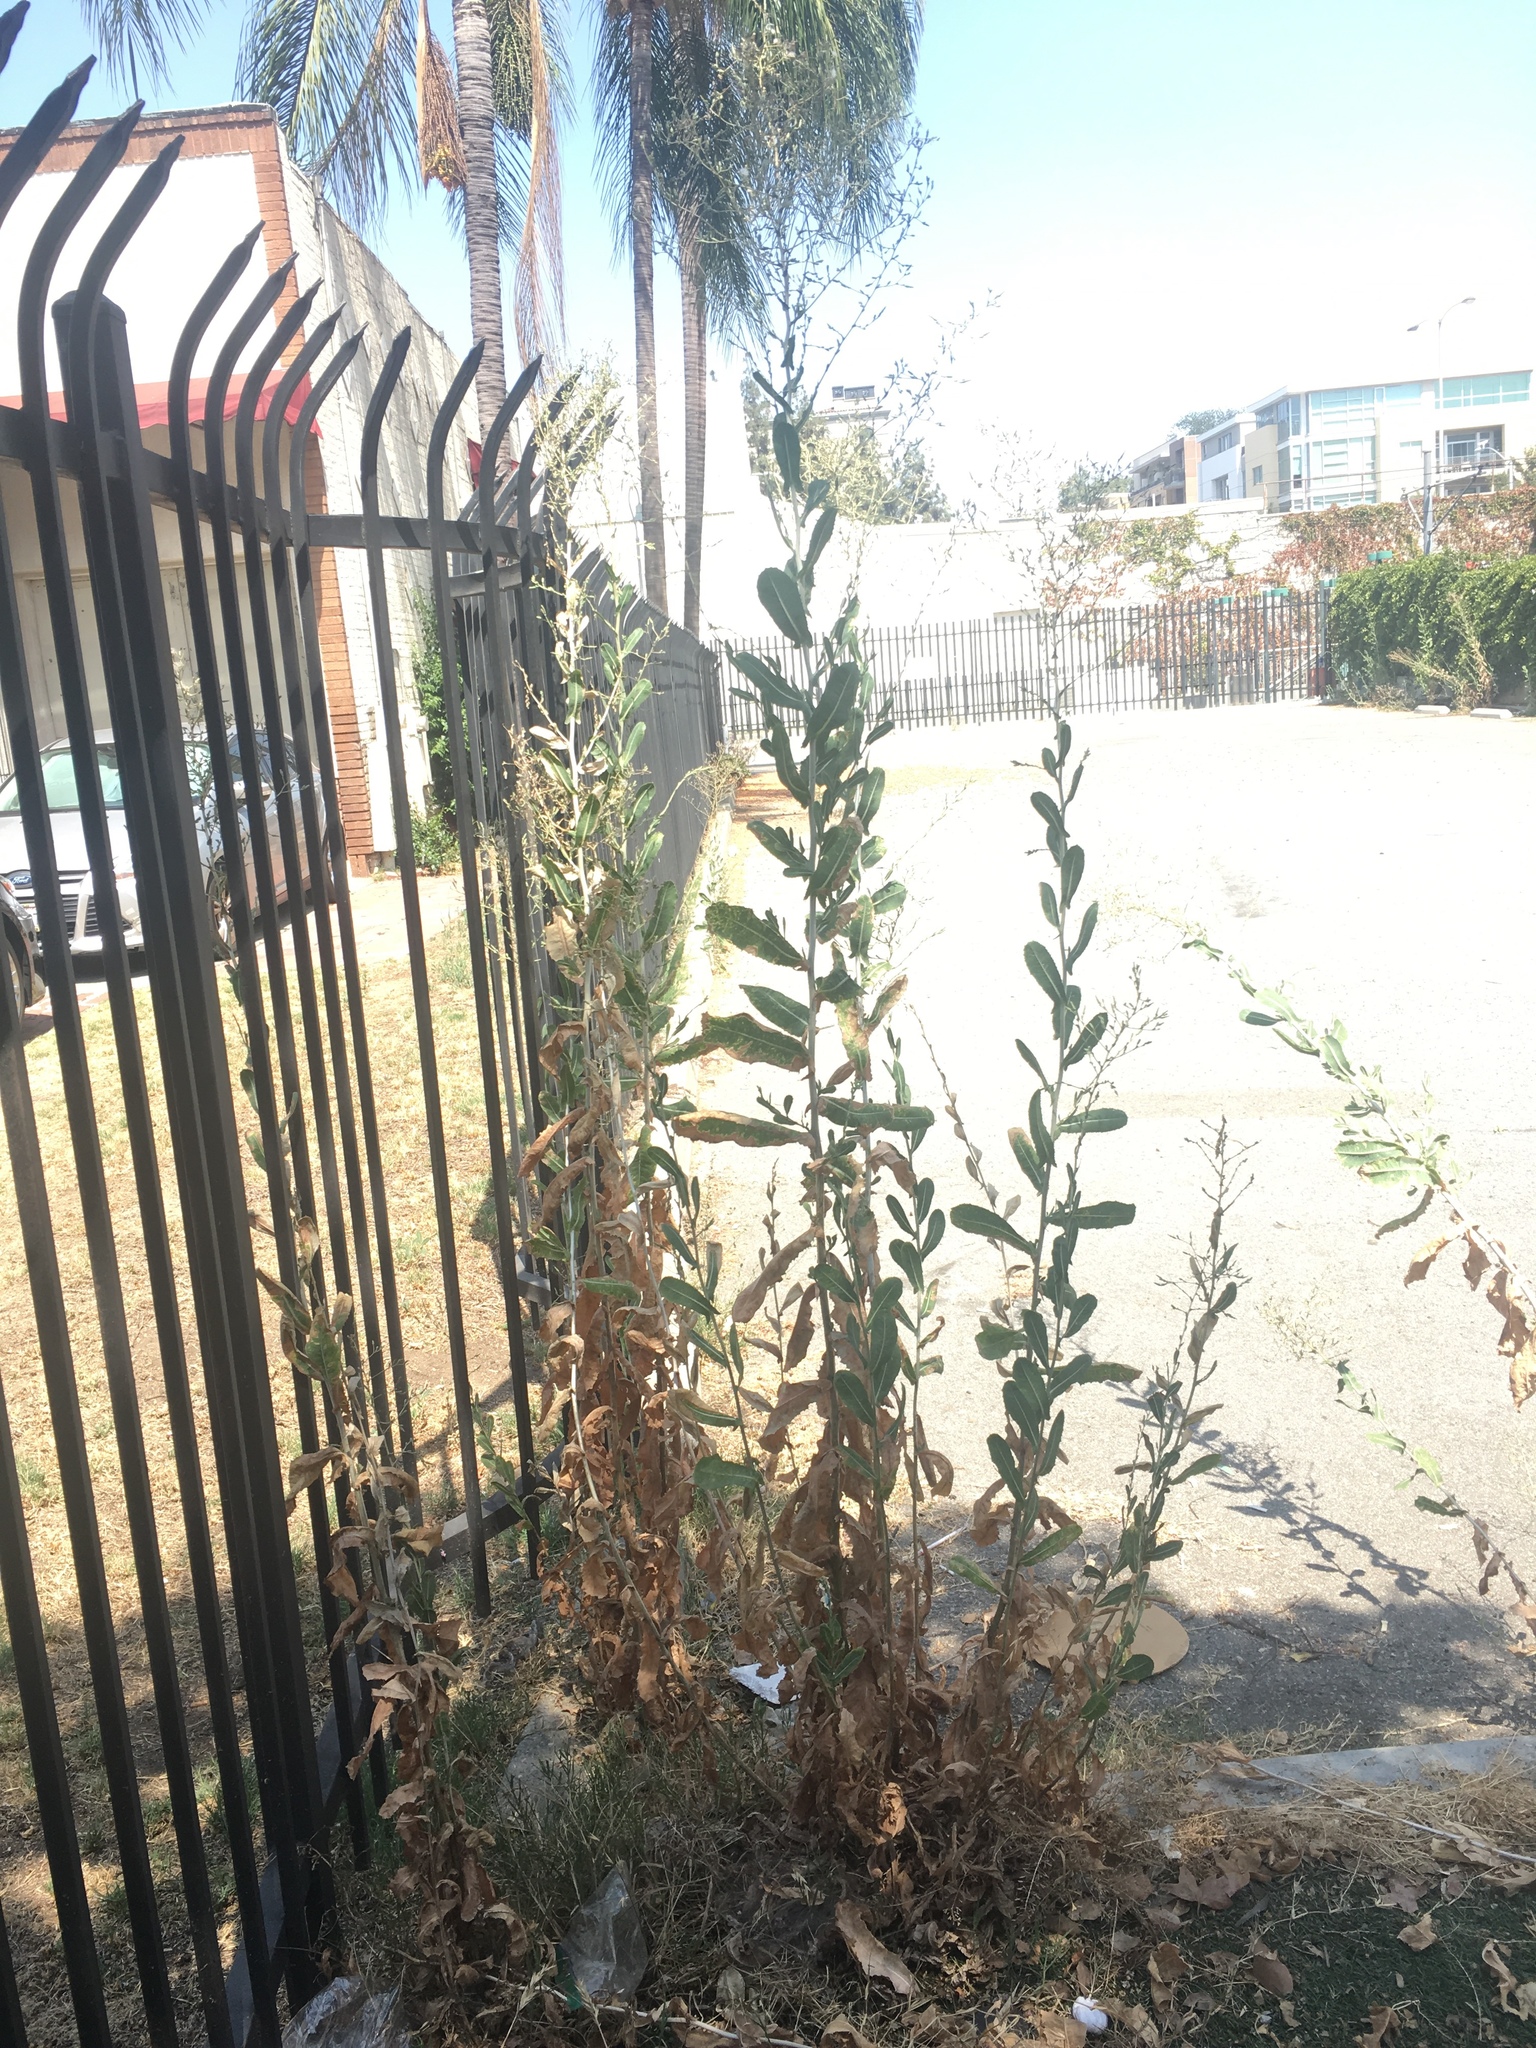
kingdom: Plantae
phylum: Tracheophyta
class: Magnoliopsida
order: Asterales
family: Asteraceae
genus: Lactuca
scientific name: Lactuca serriola
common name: Prickly lettuce
